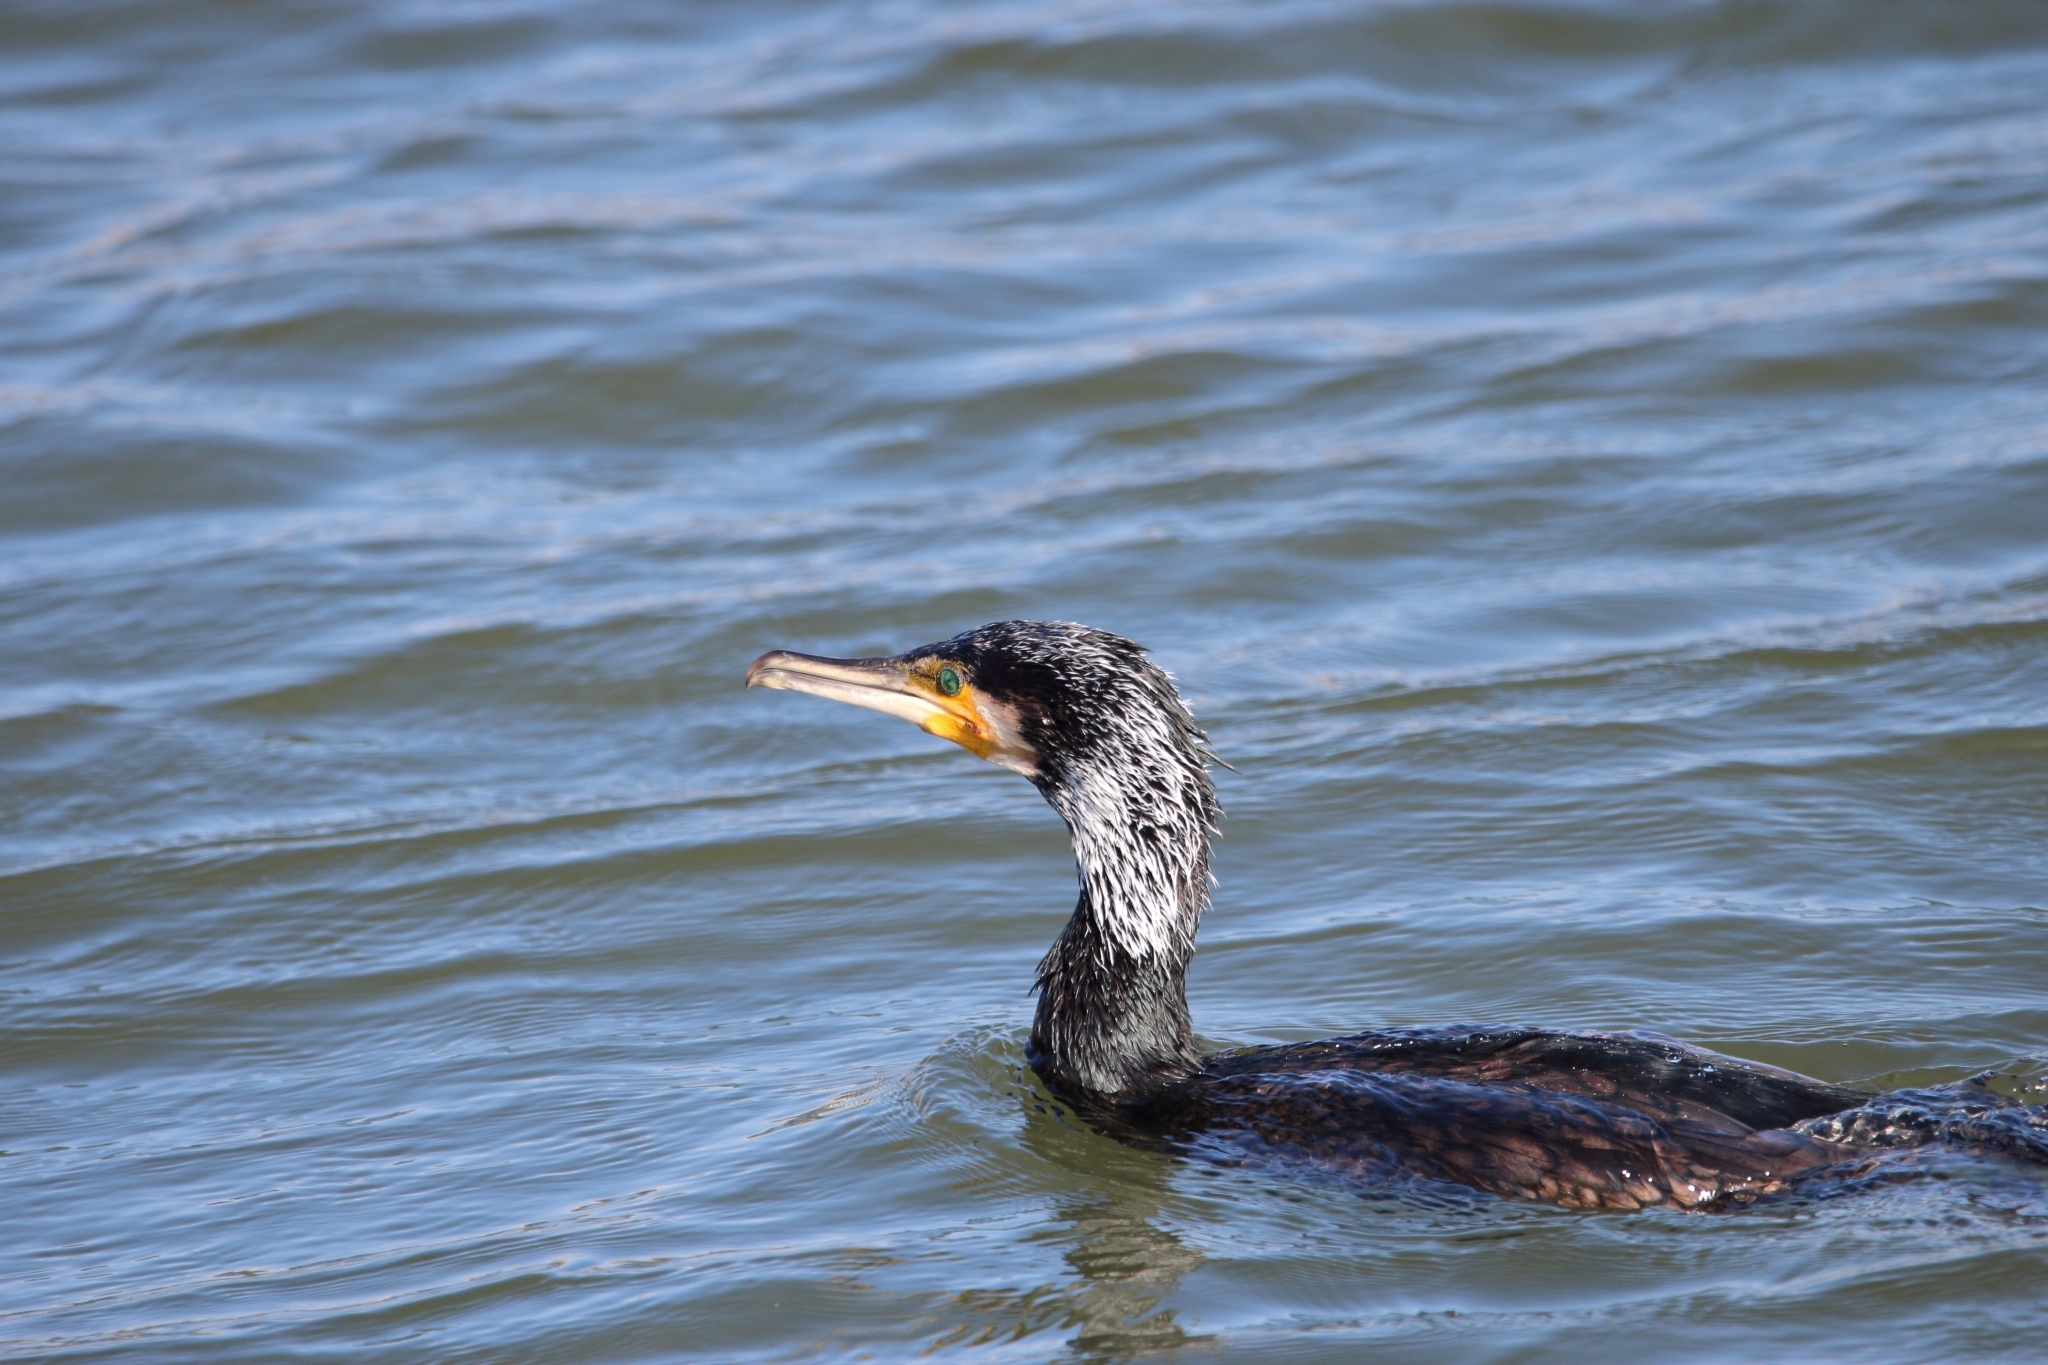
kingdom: Animalia
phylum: Chordata
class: Aves
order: Suliformes
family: Phalacrocoracidae
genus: Phalacrocorax
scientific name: Phalacrocorax carbo
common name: Great cormorant
